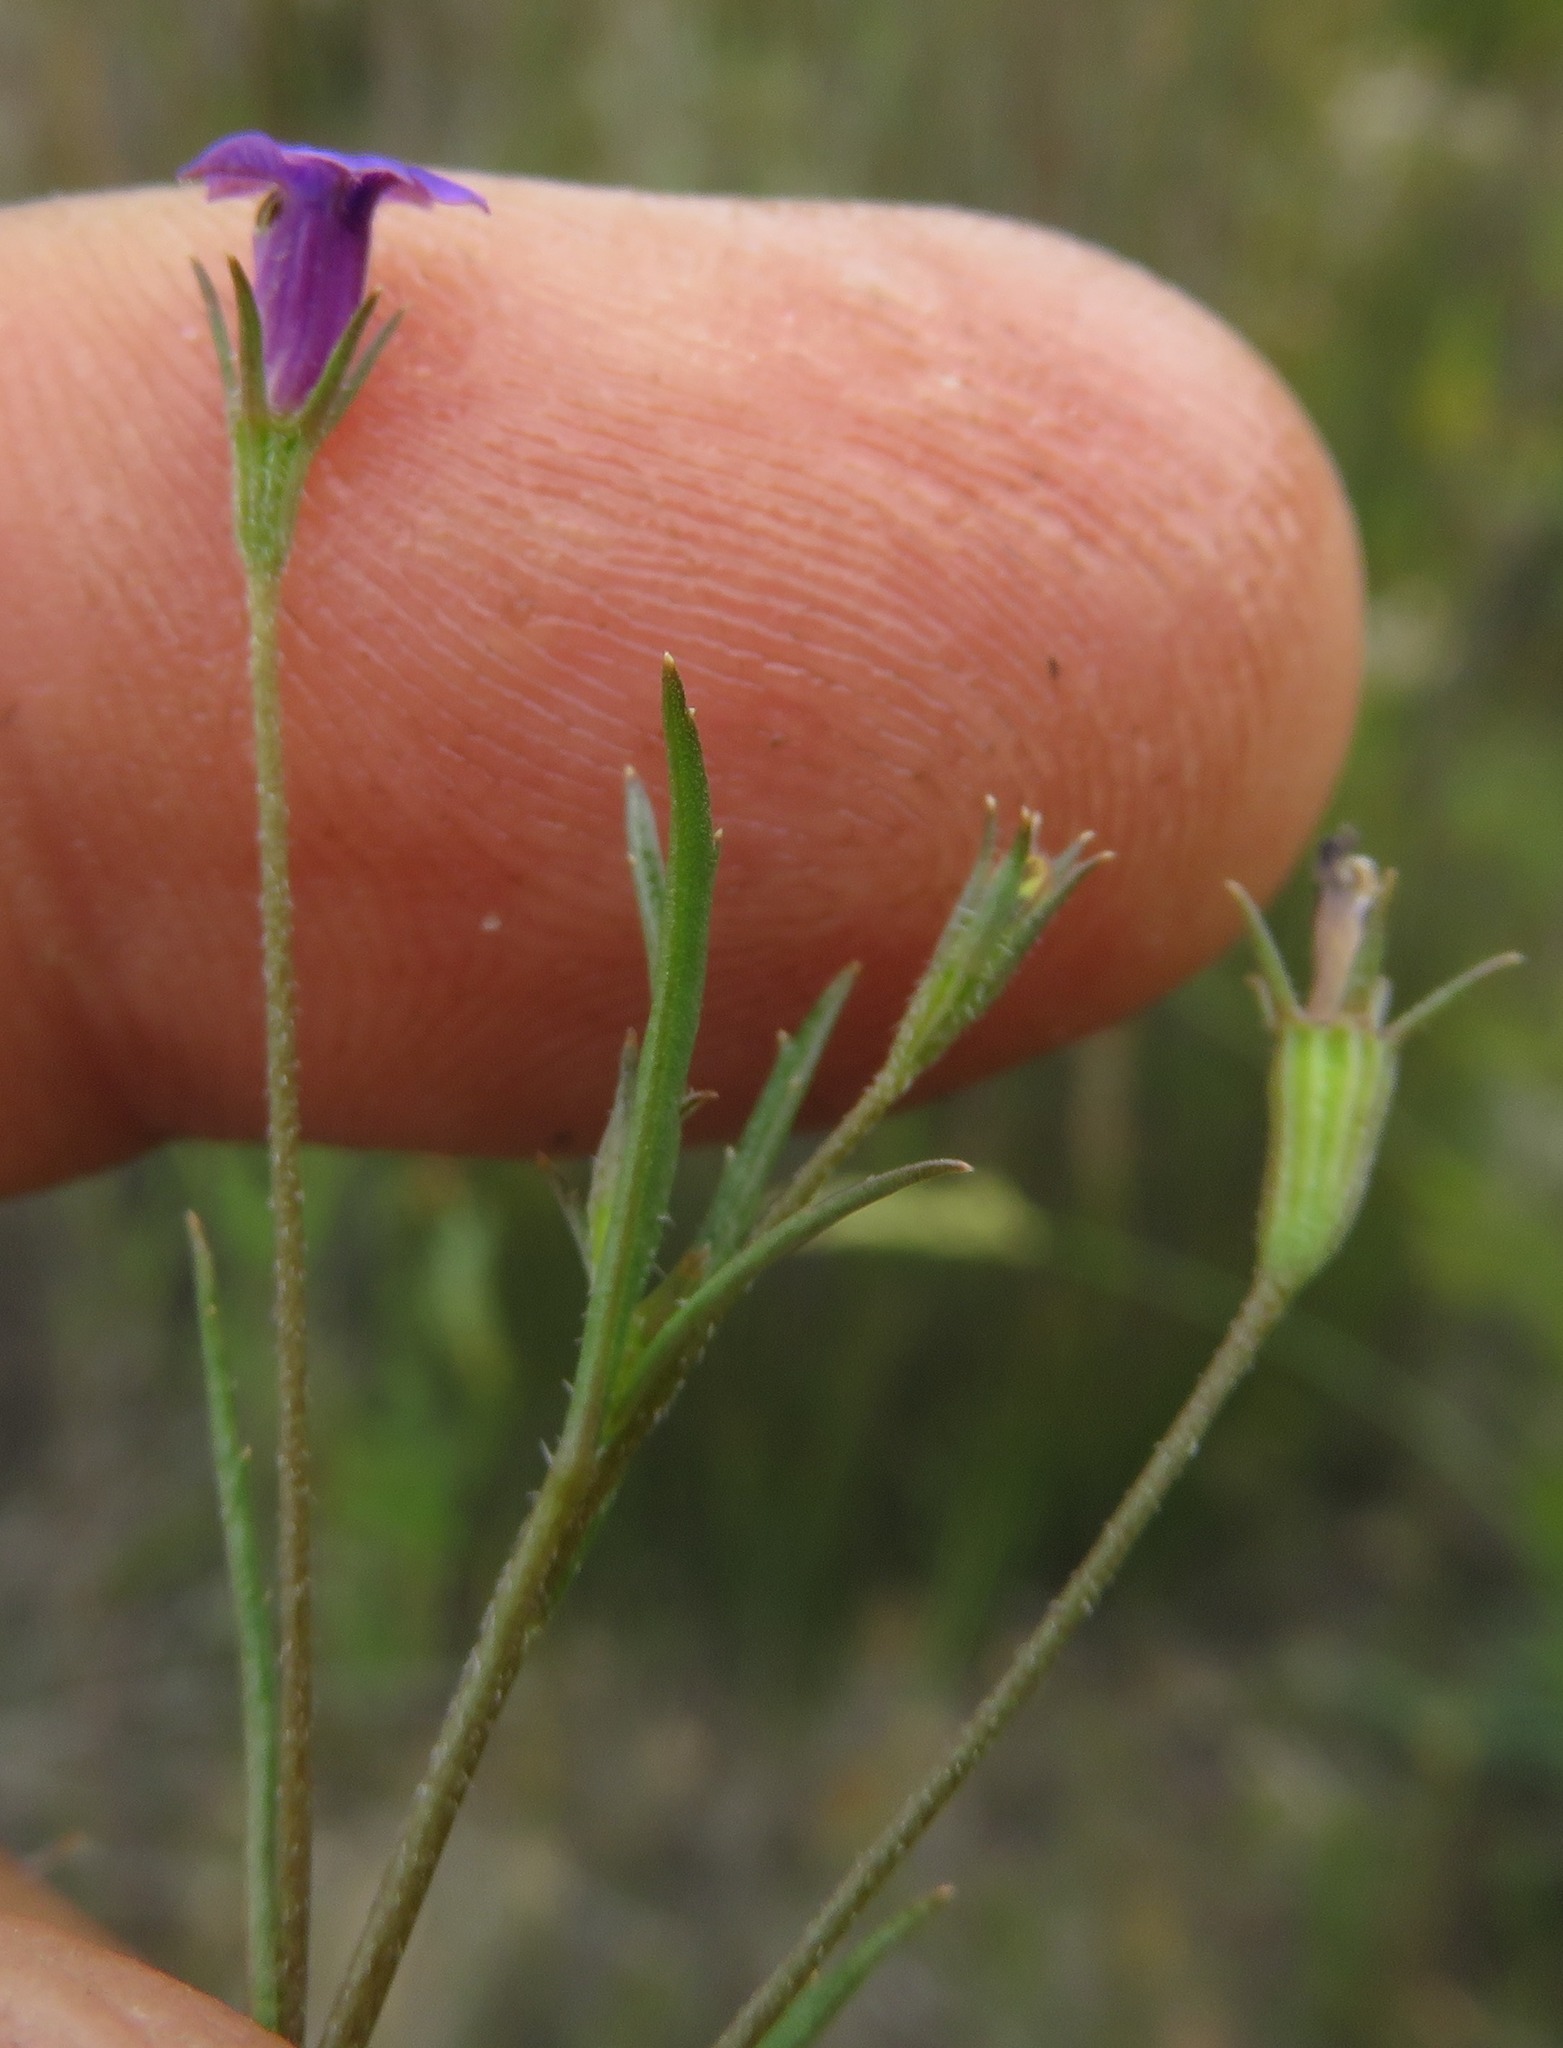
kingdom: Plantae
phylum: Tracheophyta
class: Magnoliopsida
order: Asterales
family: Campanulaceae
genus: Monopsis
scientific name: Monopsis debilis
